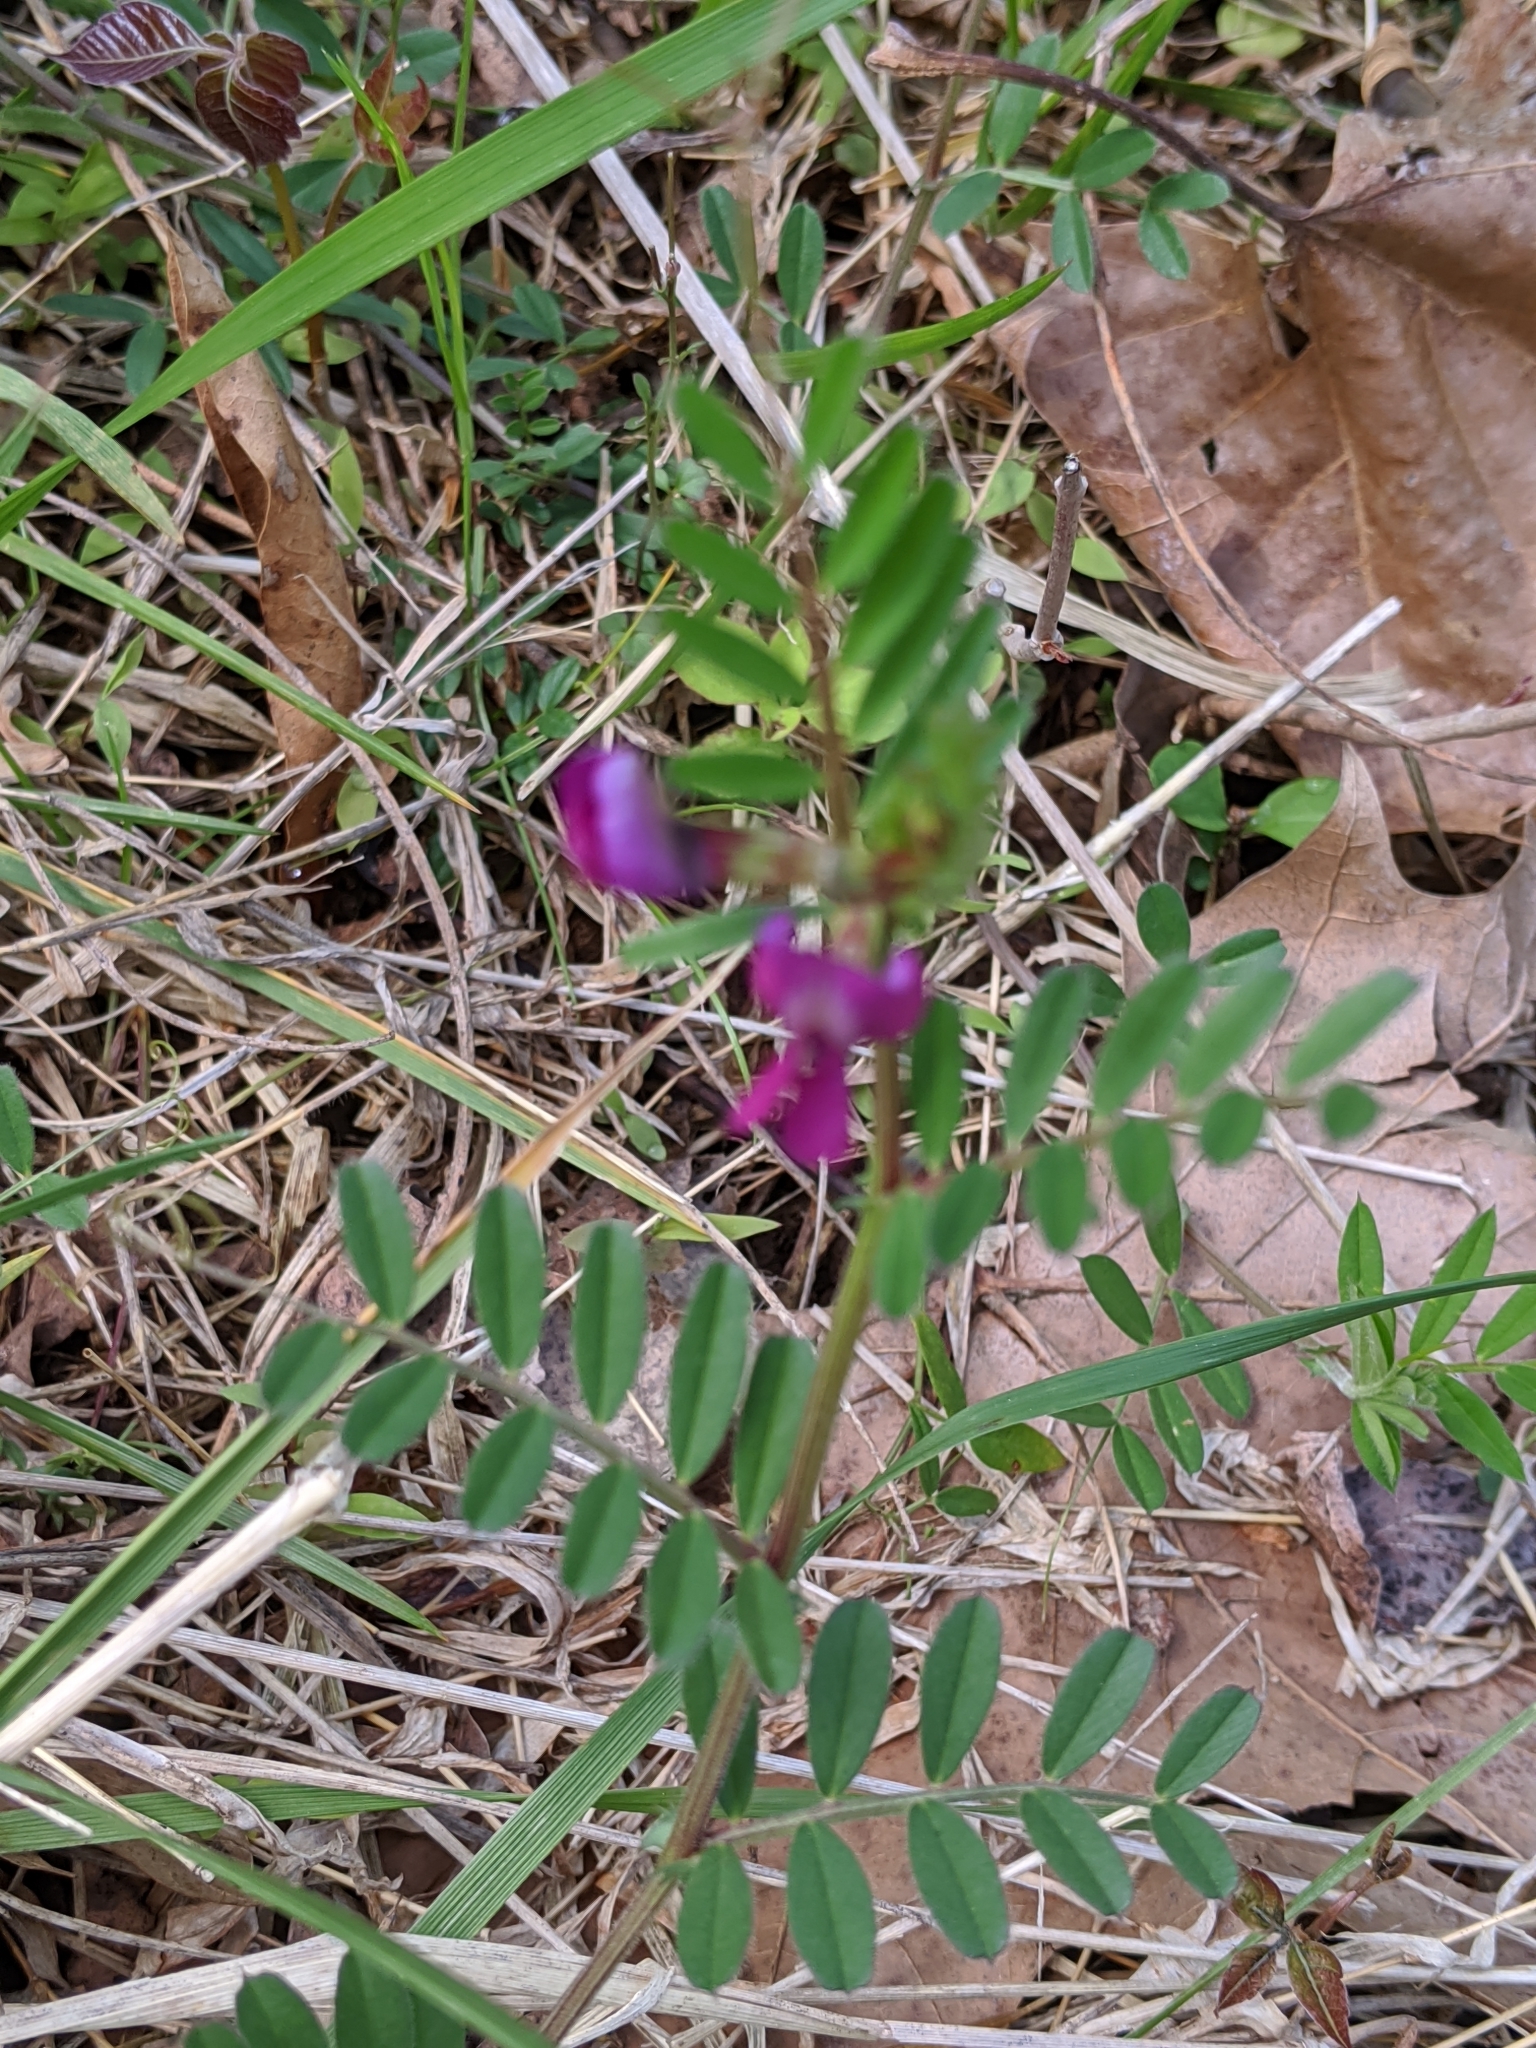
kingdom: Plantae
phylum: Tracheophyta
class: Magnoliopsida
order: Fabales
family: Fabaceae
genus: Vicia
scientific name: Vicia sativa
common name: Garden vetch
